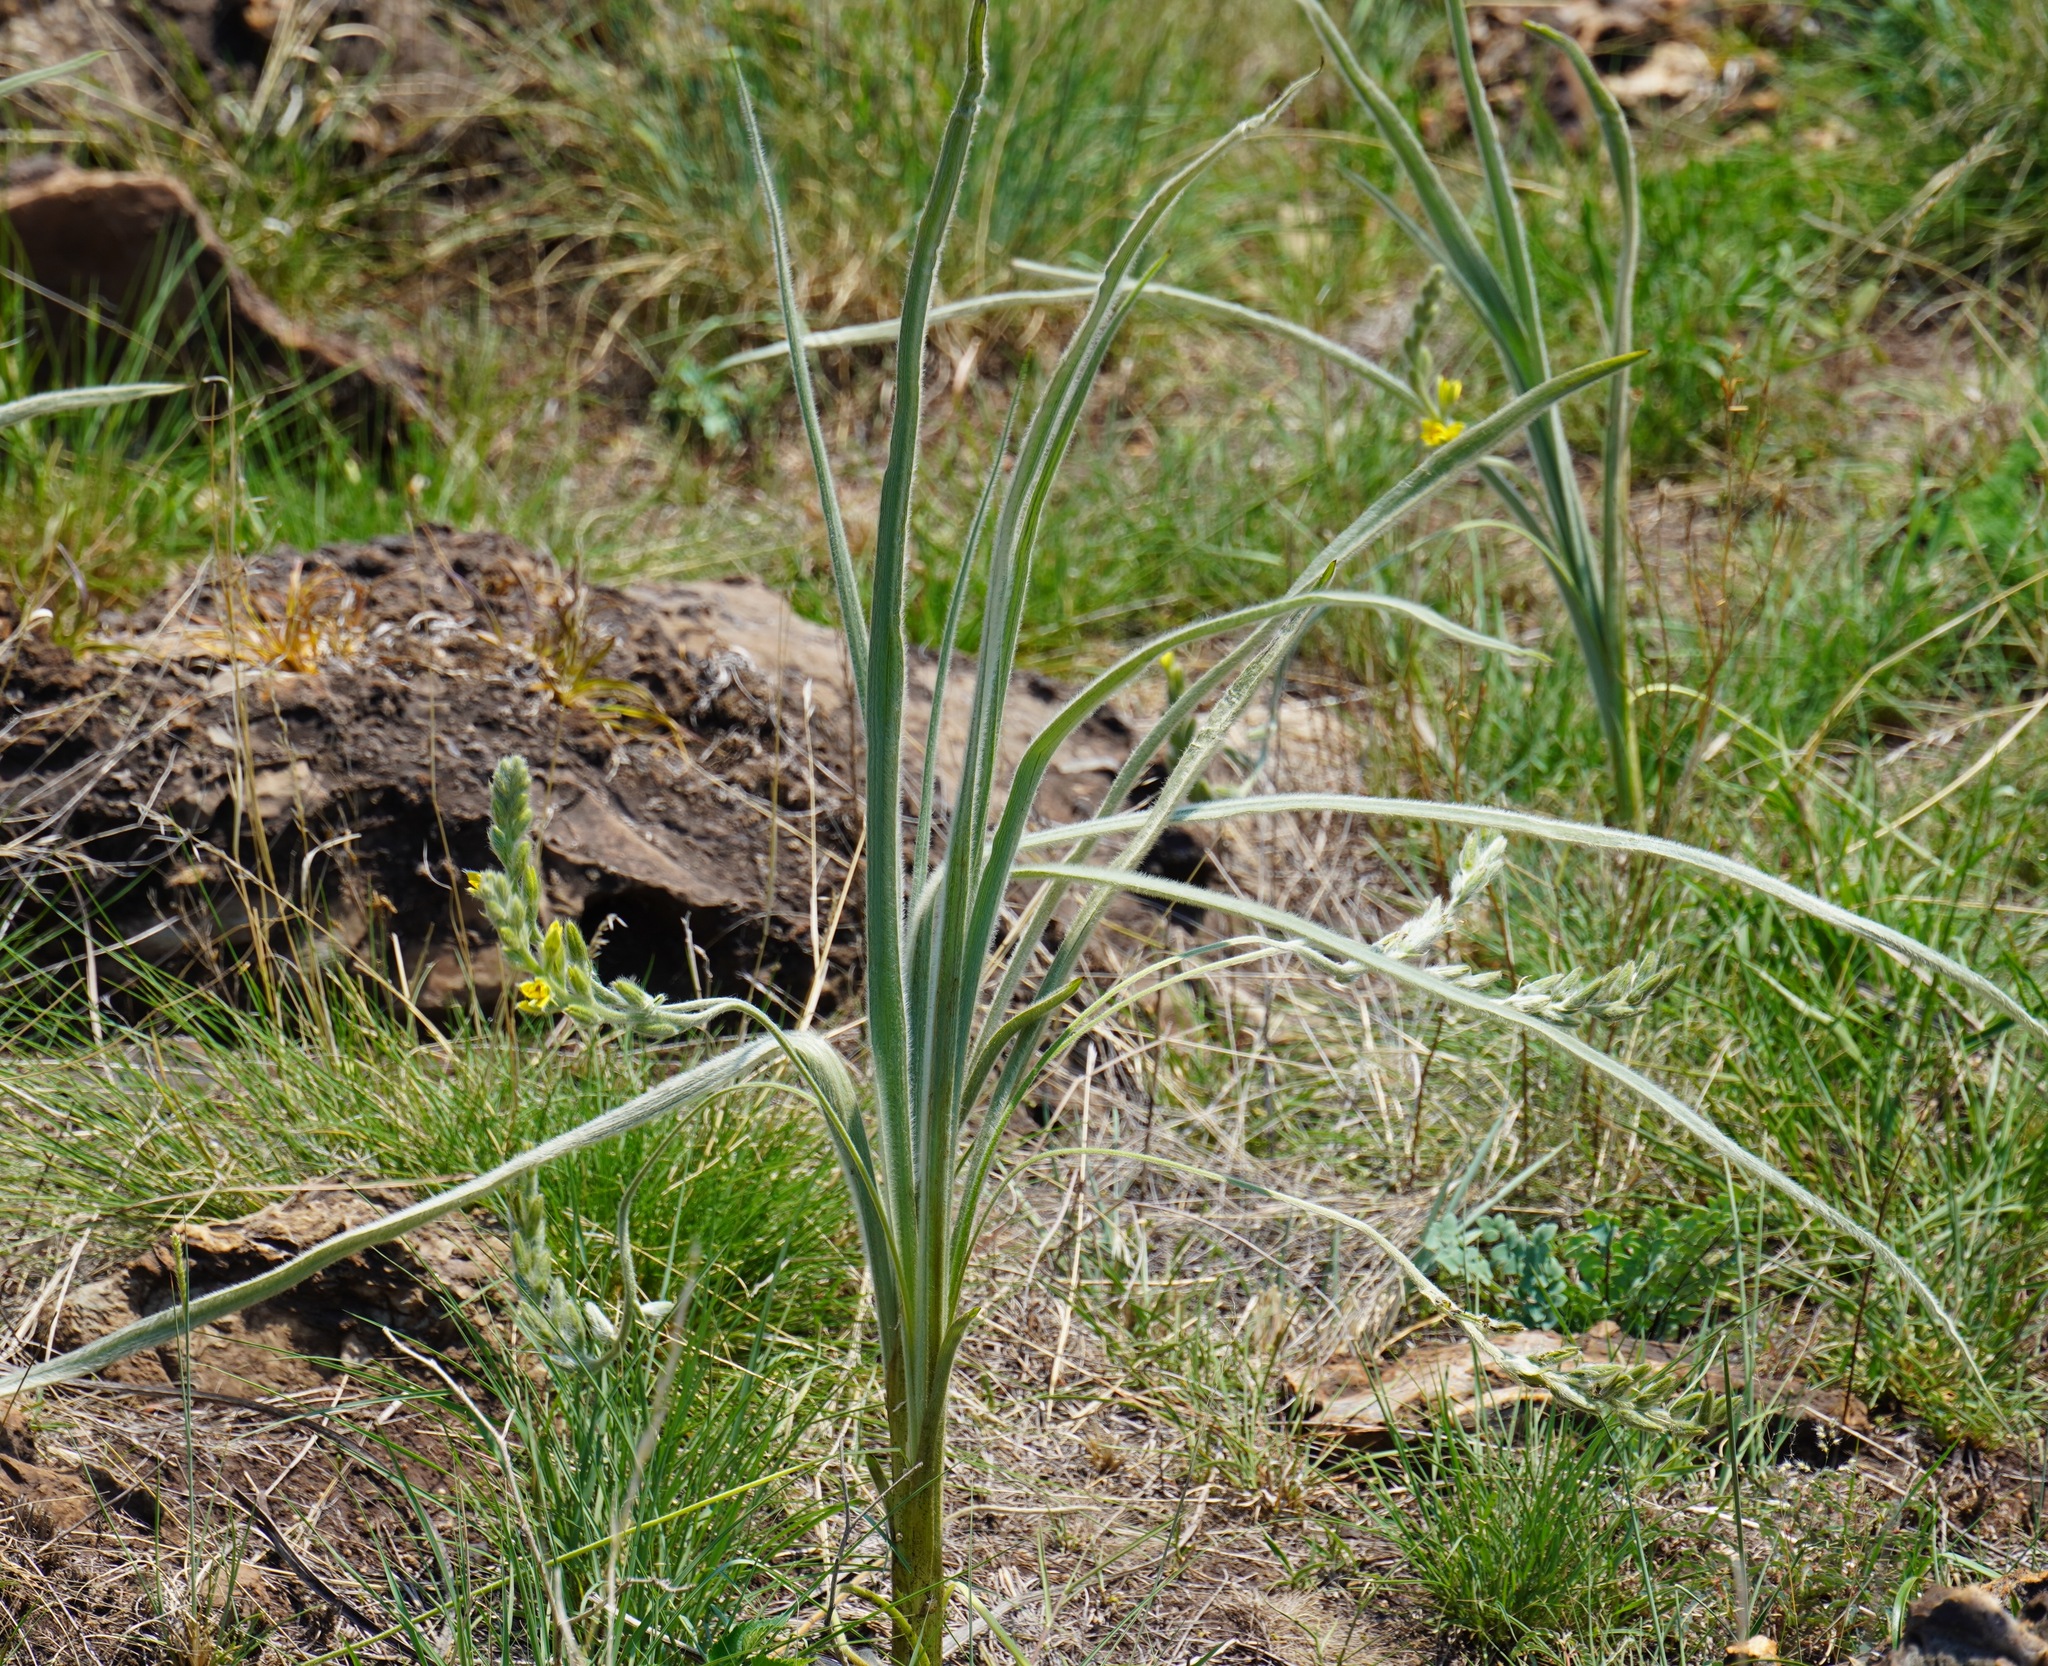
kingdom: Plantae
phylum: Tracheophyta
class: Liliopsida
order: Asparagales
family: Hypoxidaceae
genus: Hypoxis
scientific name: Hypoxis rigidula
